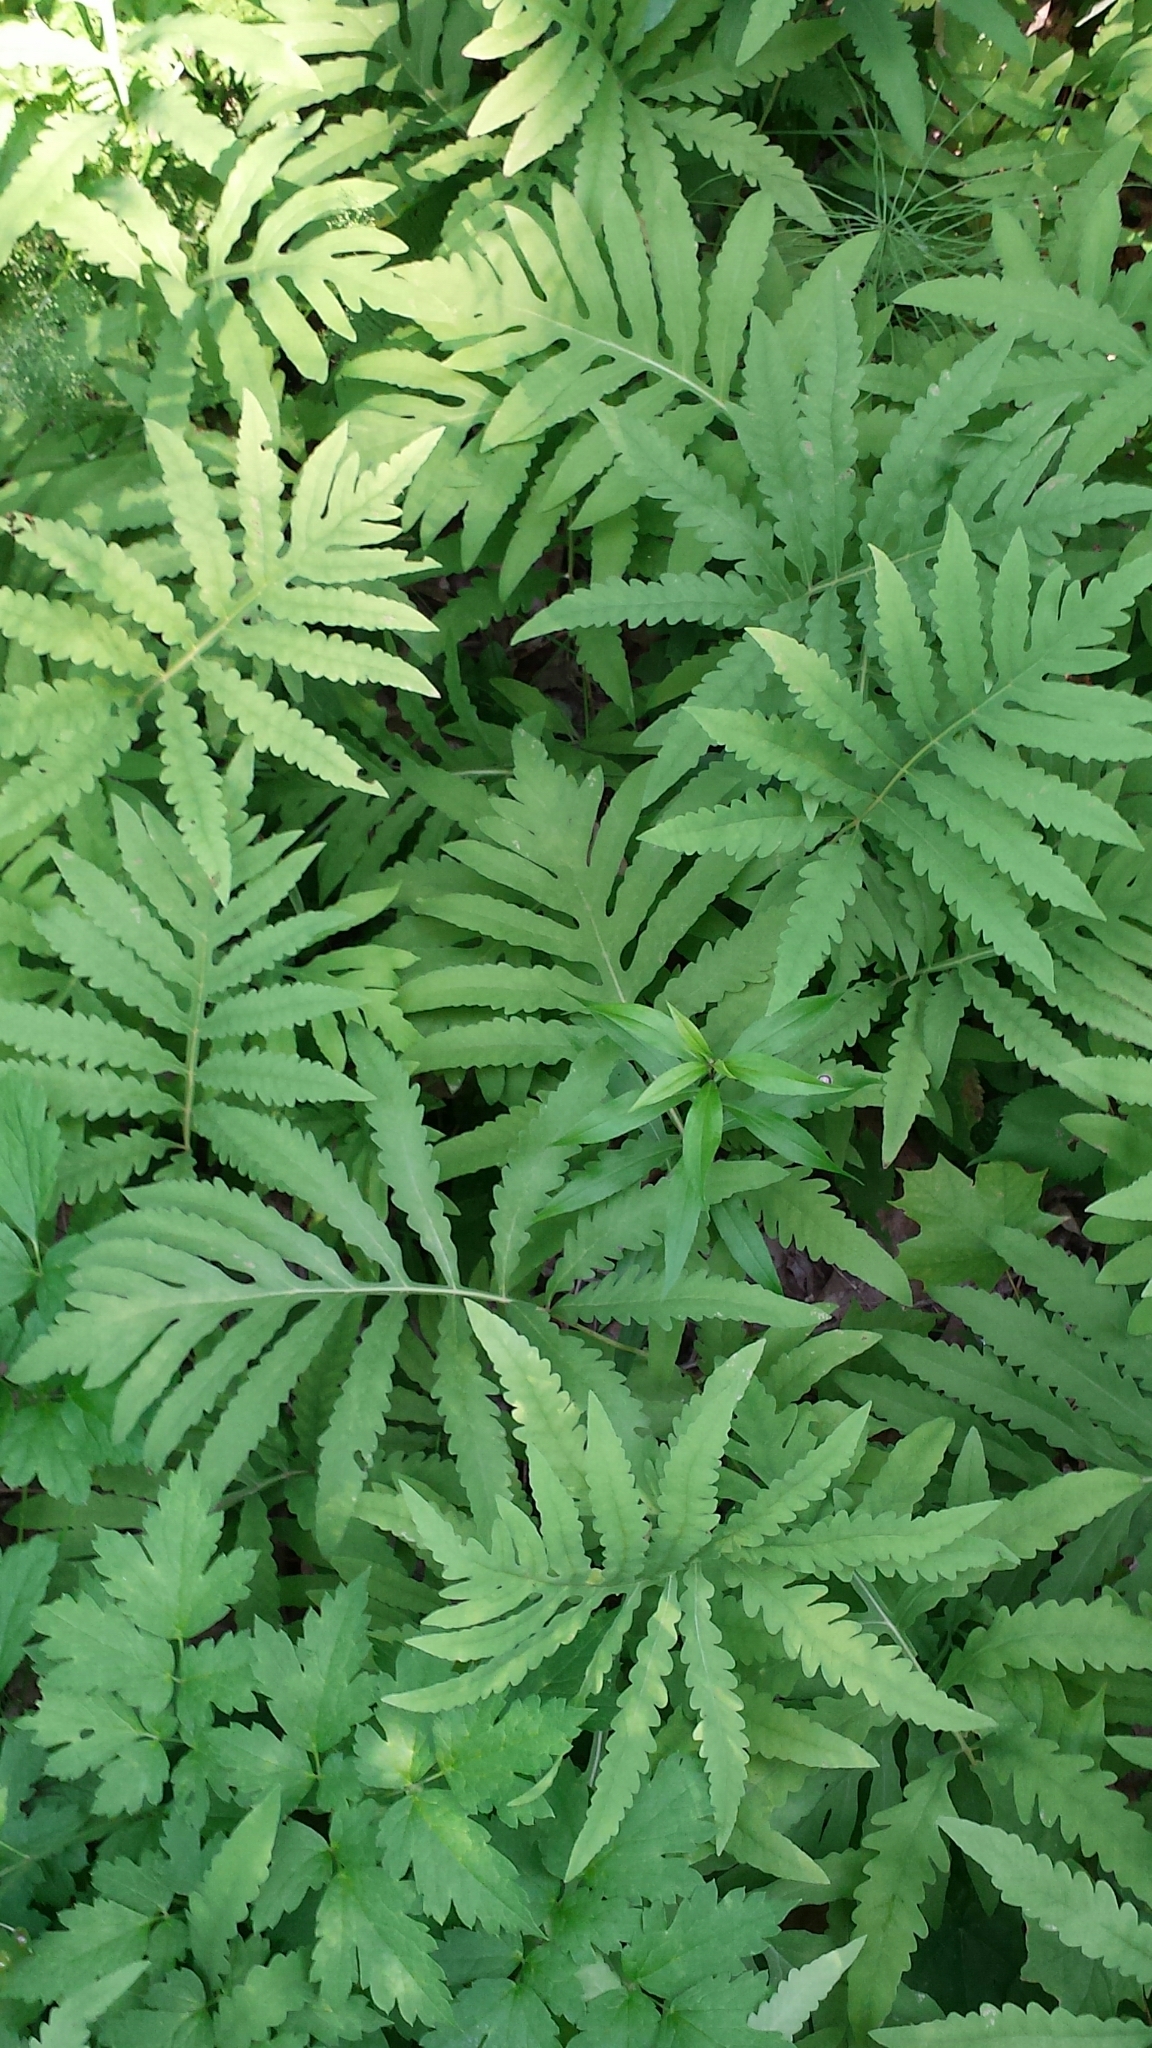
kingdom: Plantae
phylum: Tracheophyta
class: Polypodiopsida
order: Polypodiales
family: Onocleaceae
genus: Onoclea
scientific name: Onoclea sensibilis
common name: Sensitive fern
